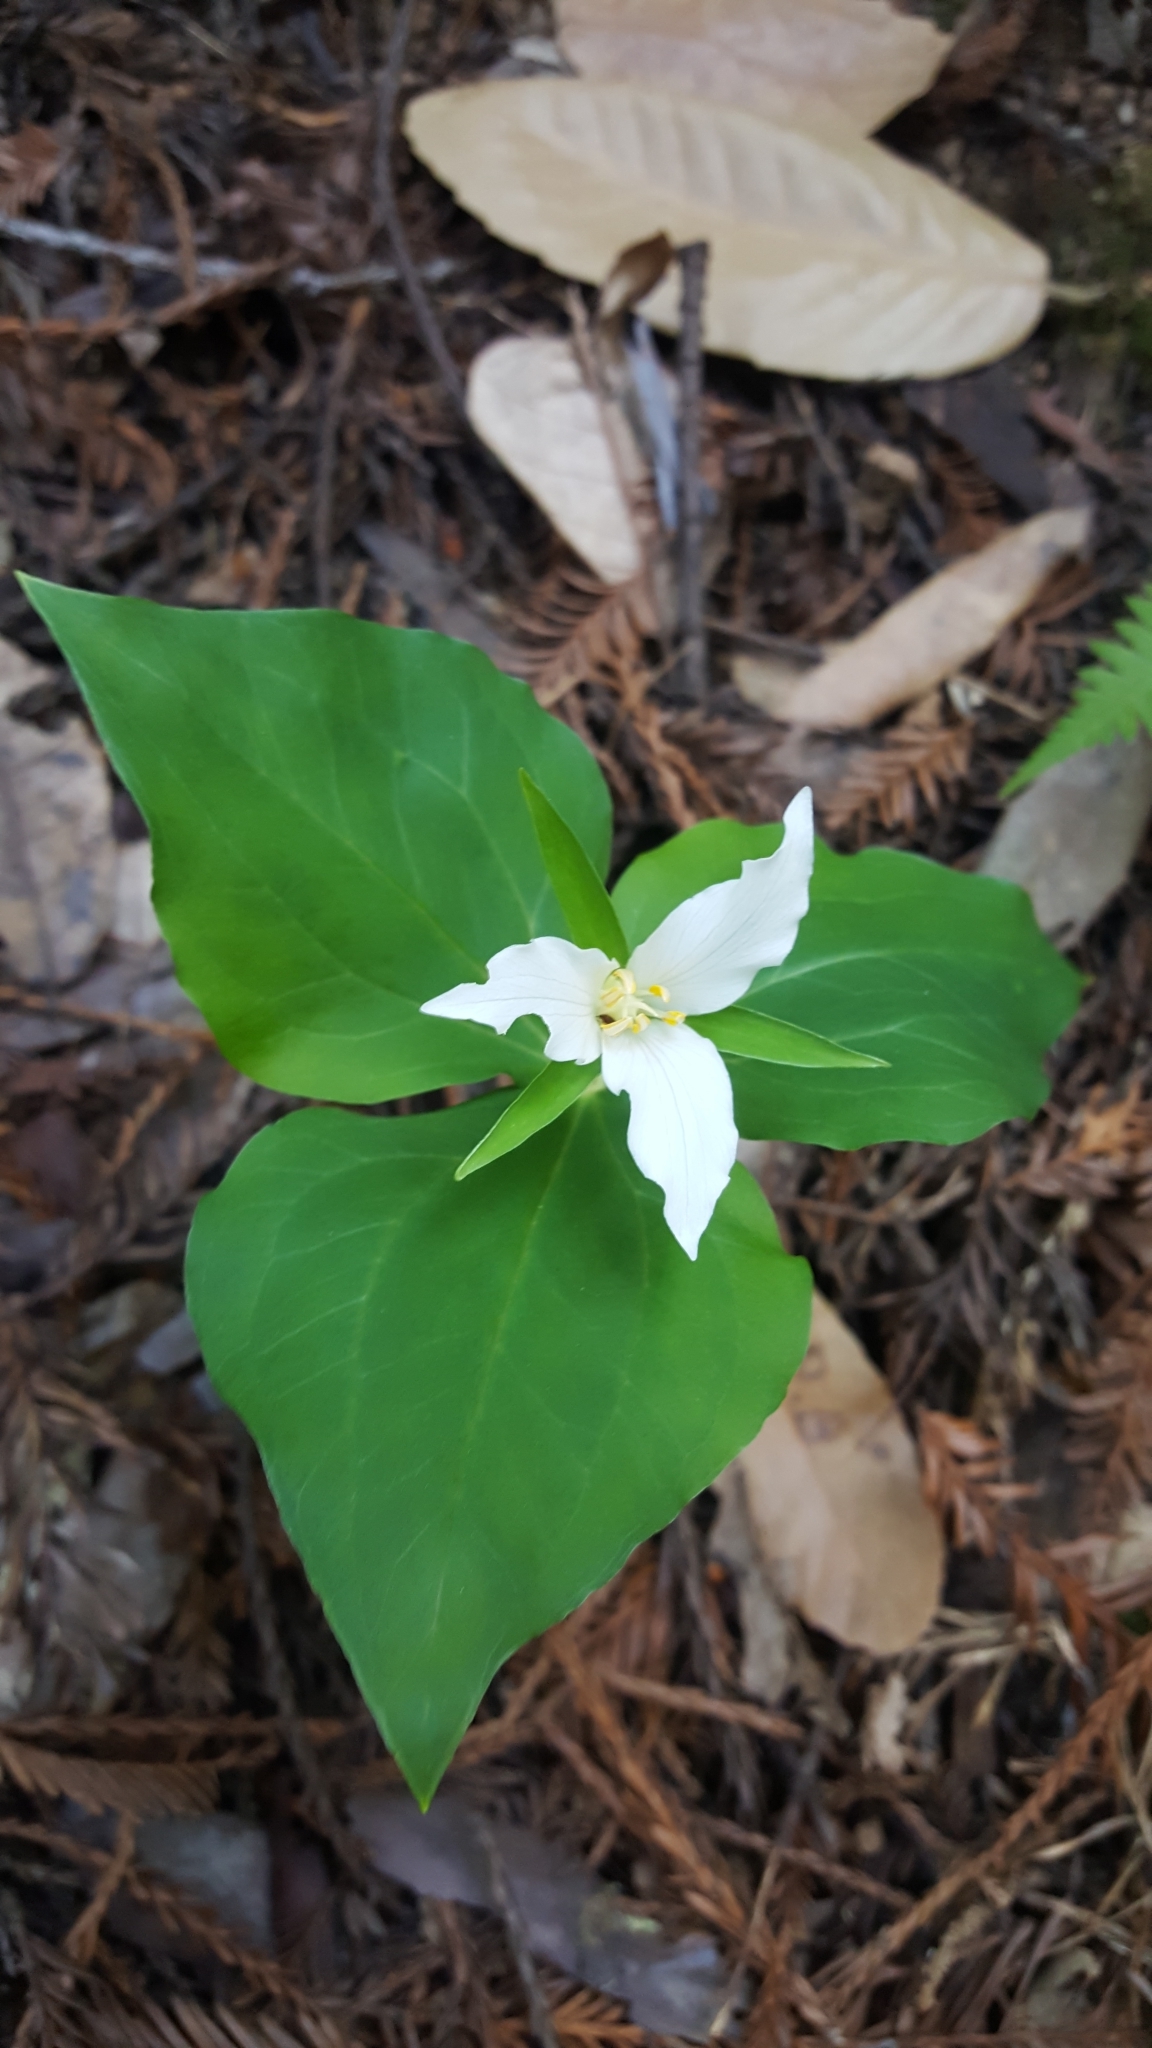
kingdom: Plantae
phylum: Tracheophyta
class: Liliopsida
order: Liliales
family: Melanthiaceae
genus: Trillium
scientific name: Trillium ovatum
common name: Pacific trillium
